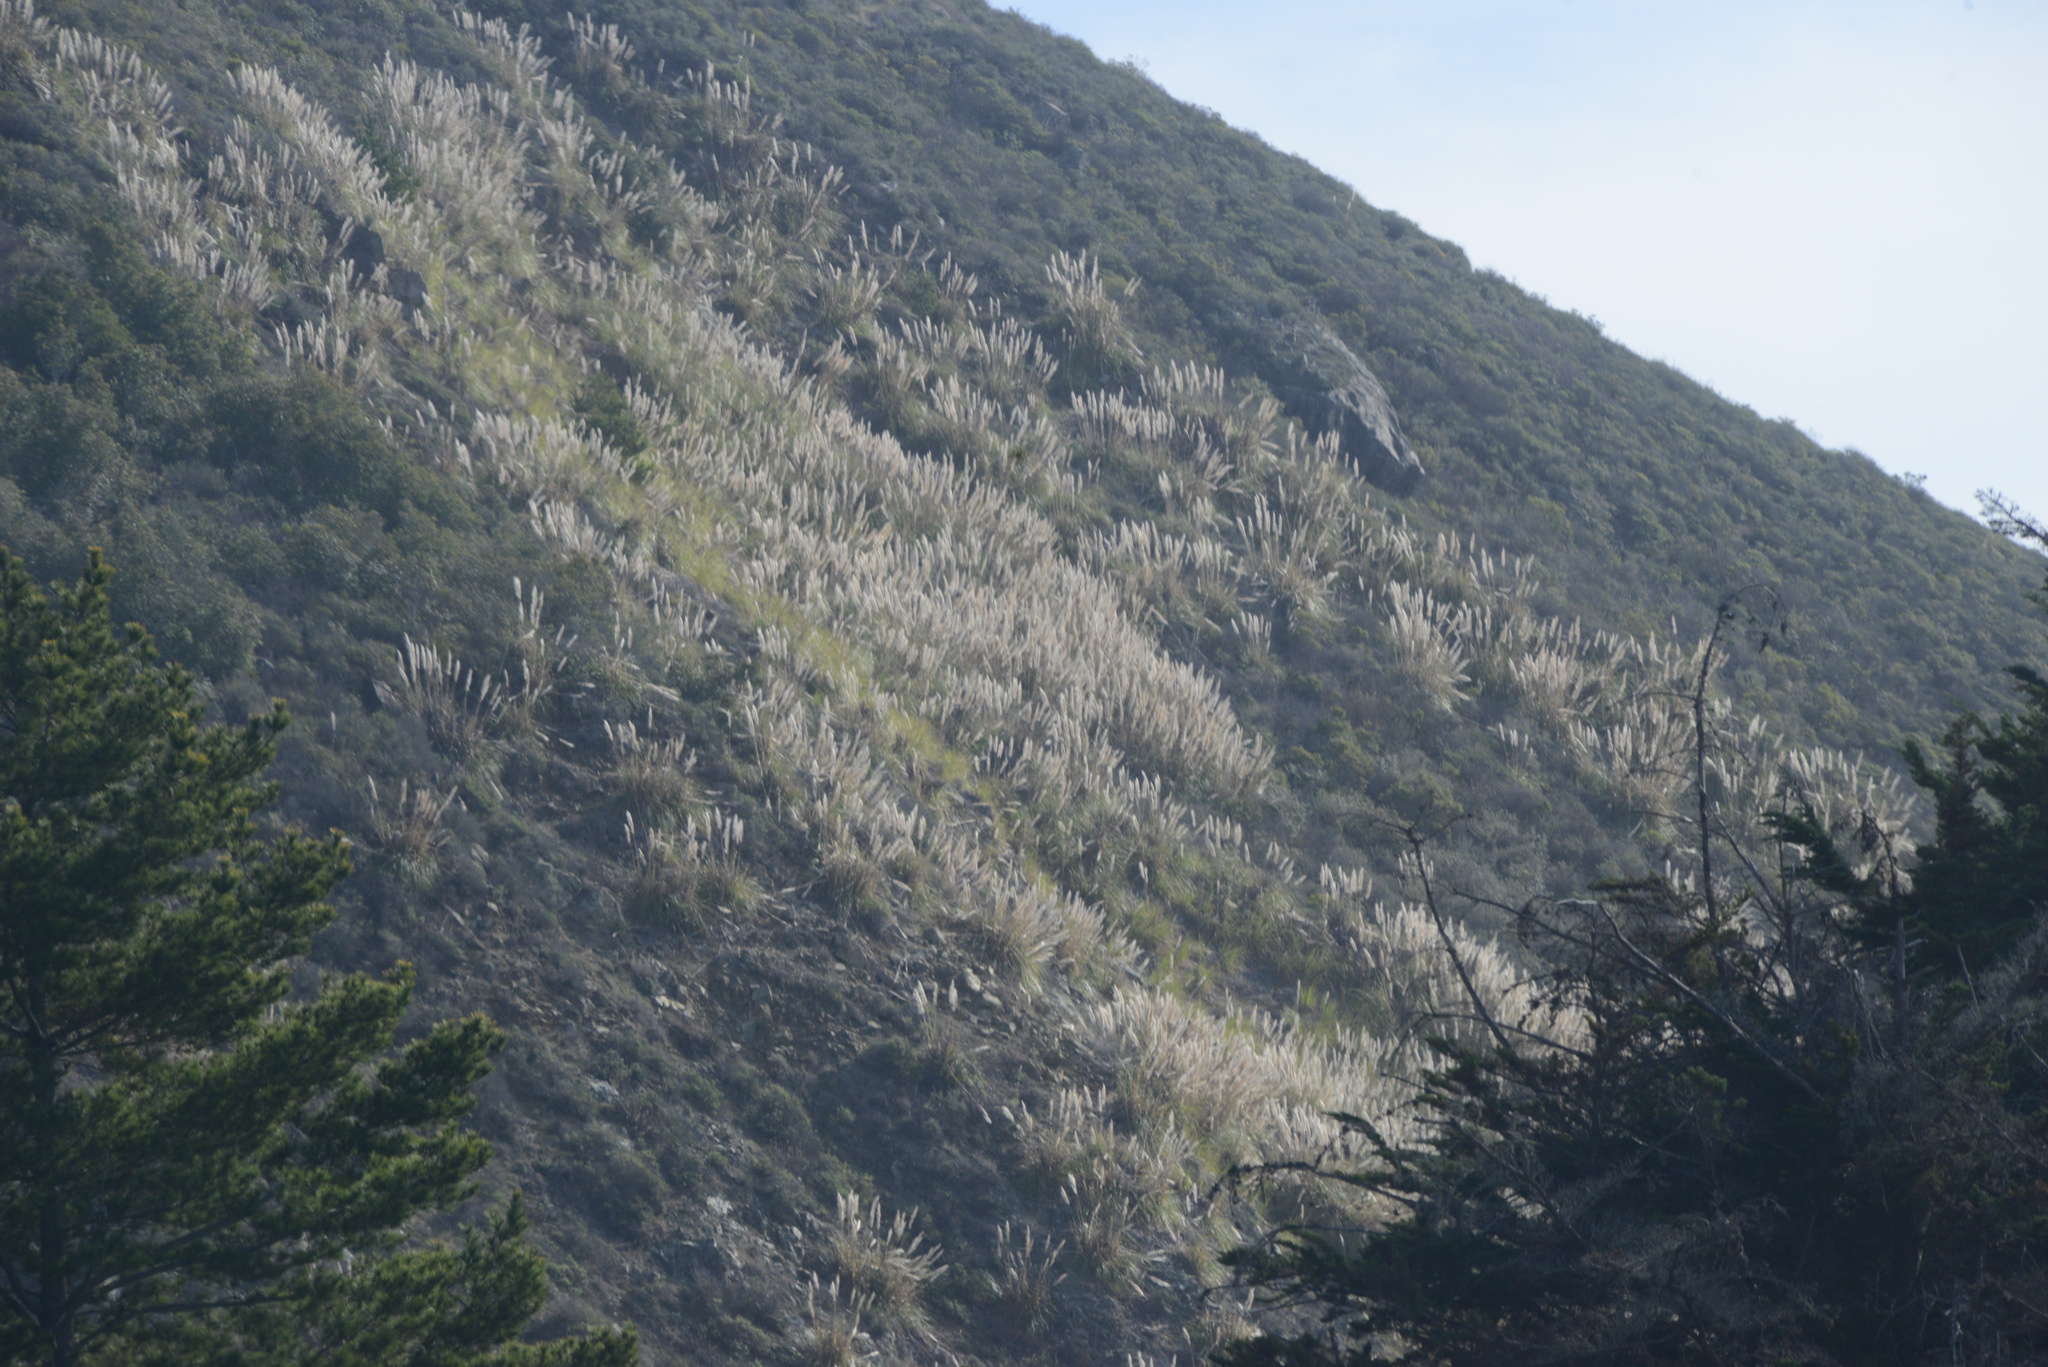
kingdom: Plantae
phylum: Tracheophyta
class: Liliopsida
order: Poales
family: Poaceae
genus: Cortaderia
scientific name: Cortaderia selloana
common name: Uruguayan pampas grass
